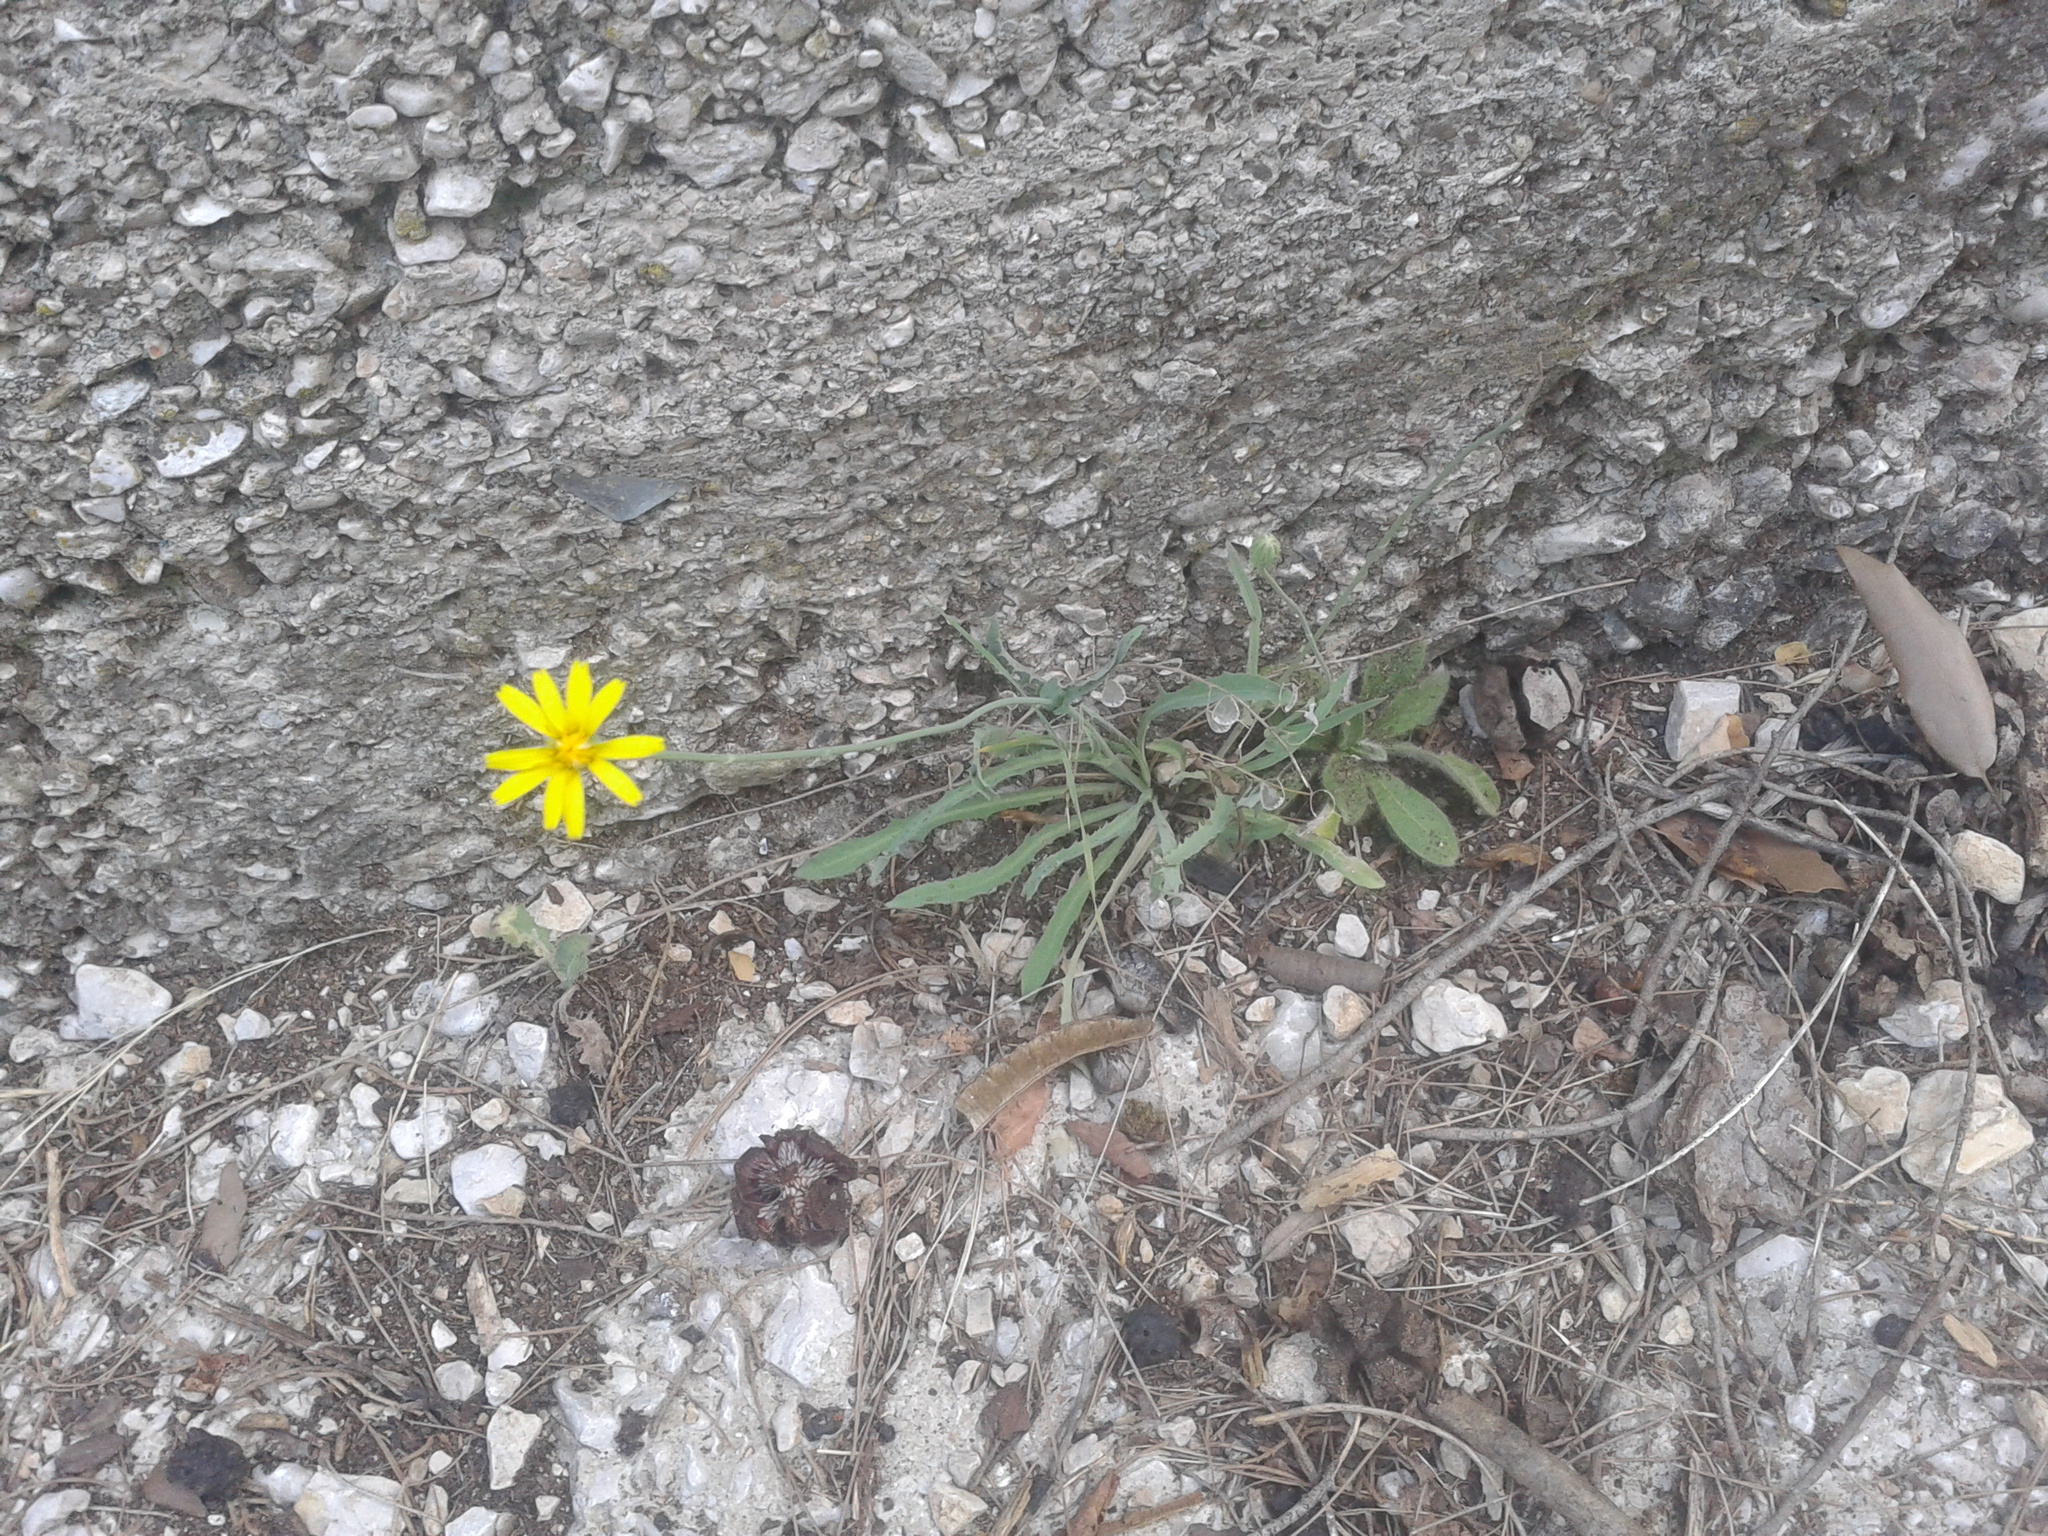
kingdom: Plantae
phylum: Tracheophyta
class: Magnoliopsida
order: Asterales
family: Asteraceae
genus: Reichardia
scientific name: Reichardia picroides
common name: Common brighteyes
